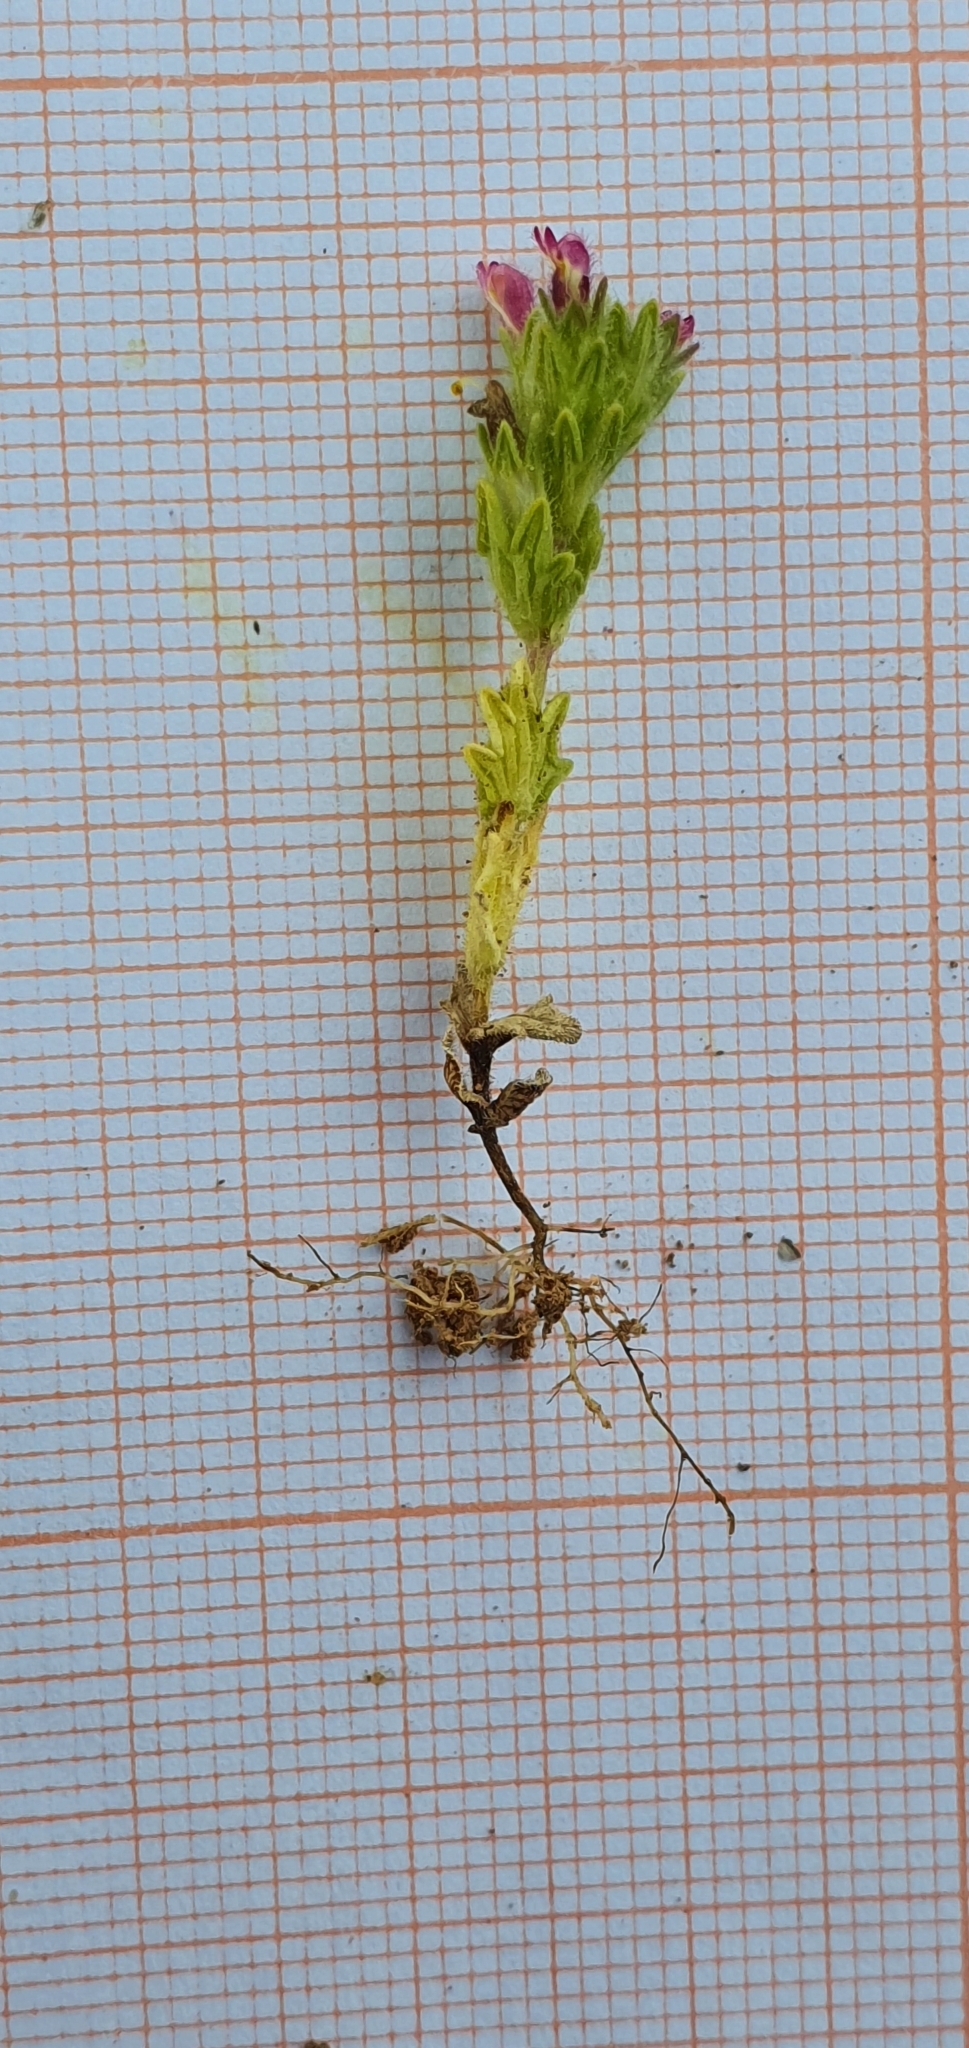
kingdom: Plantae
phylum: Tracheophyta
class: Magnoliopsida
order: Lamiales
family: Orobanchaceae
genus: Parentucellia
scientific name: Parentucellia latifolia
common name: Broadleaf glandweed
